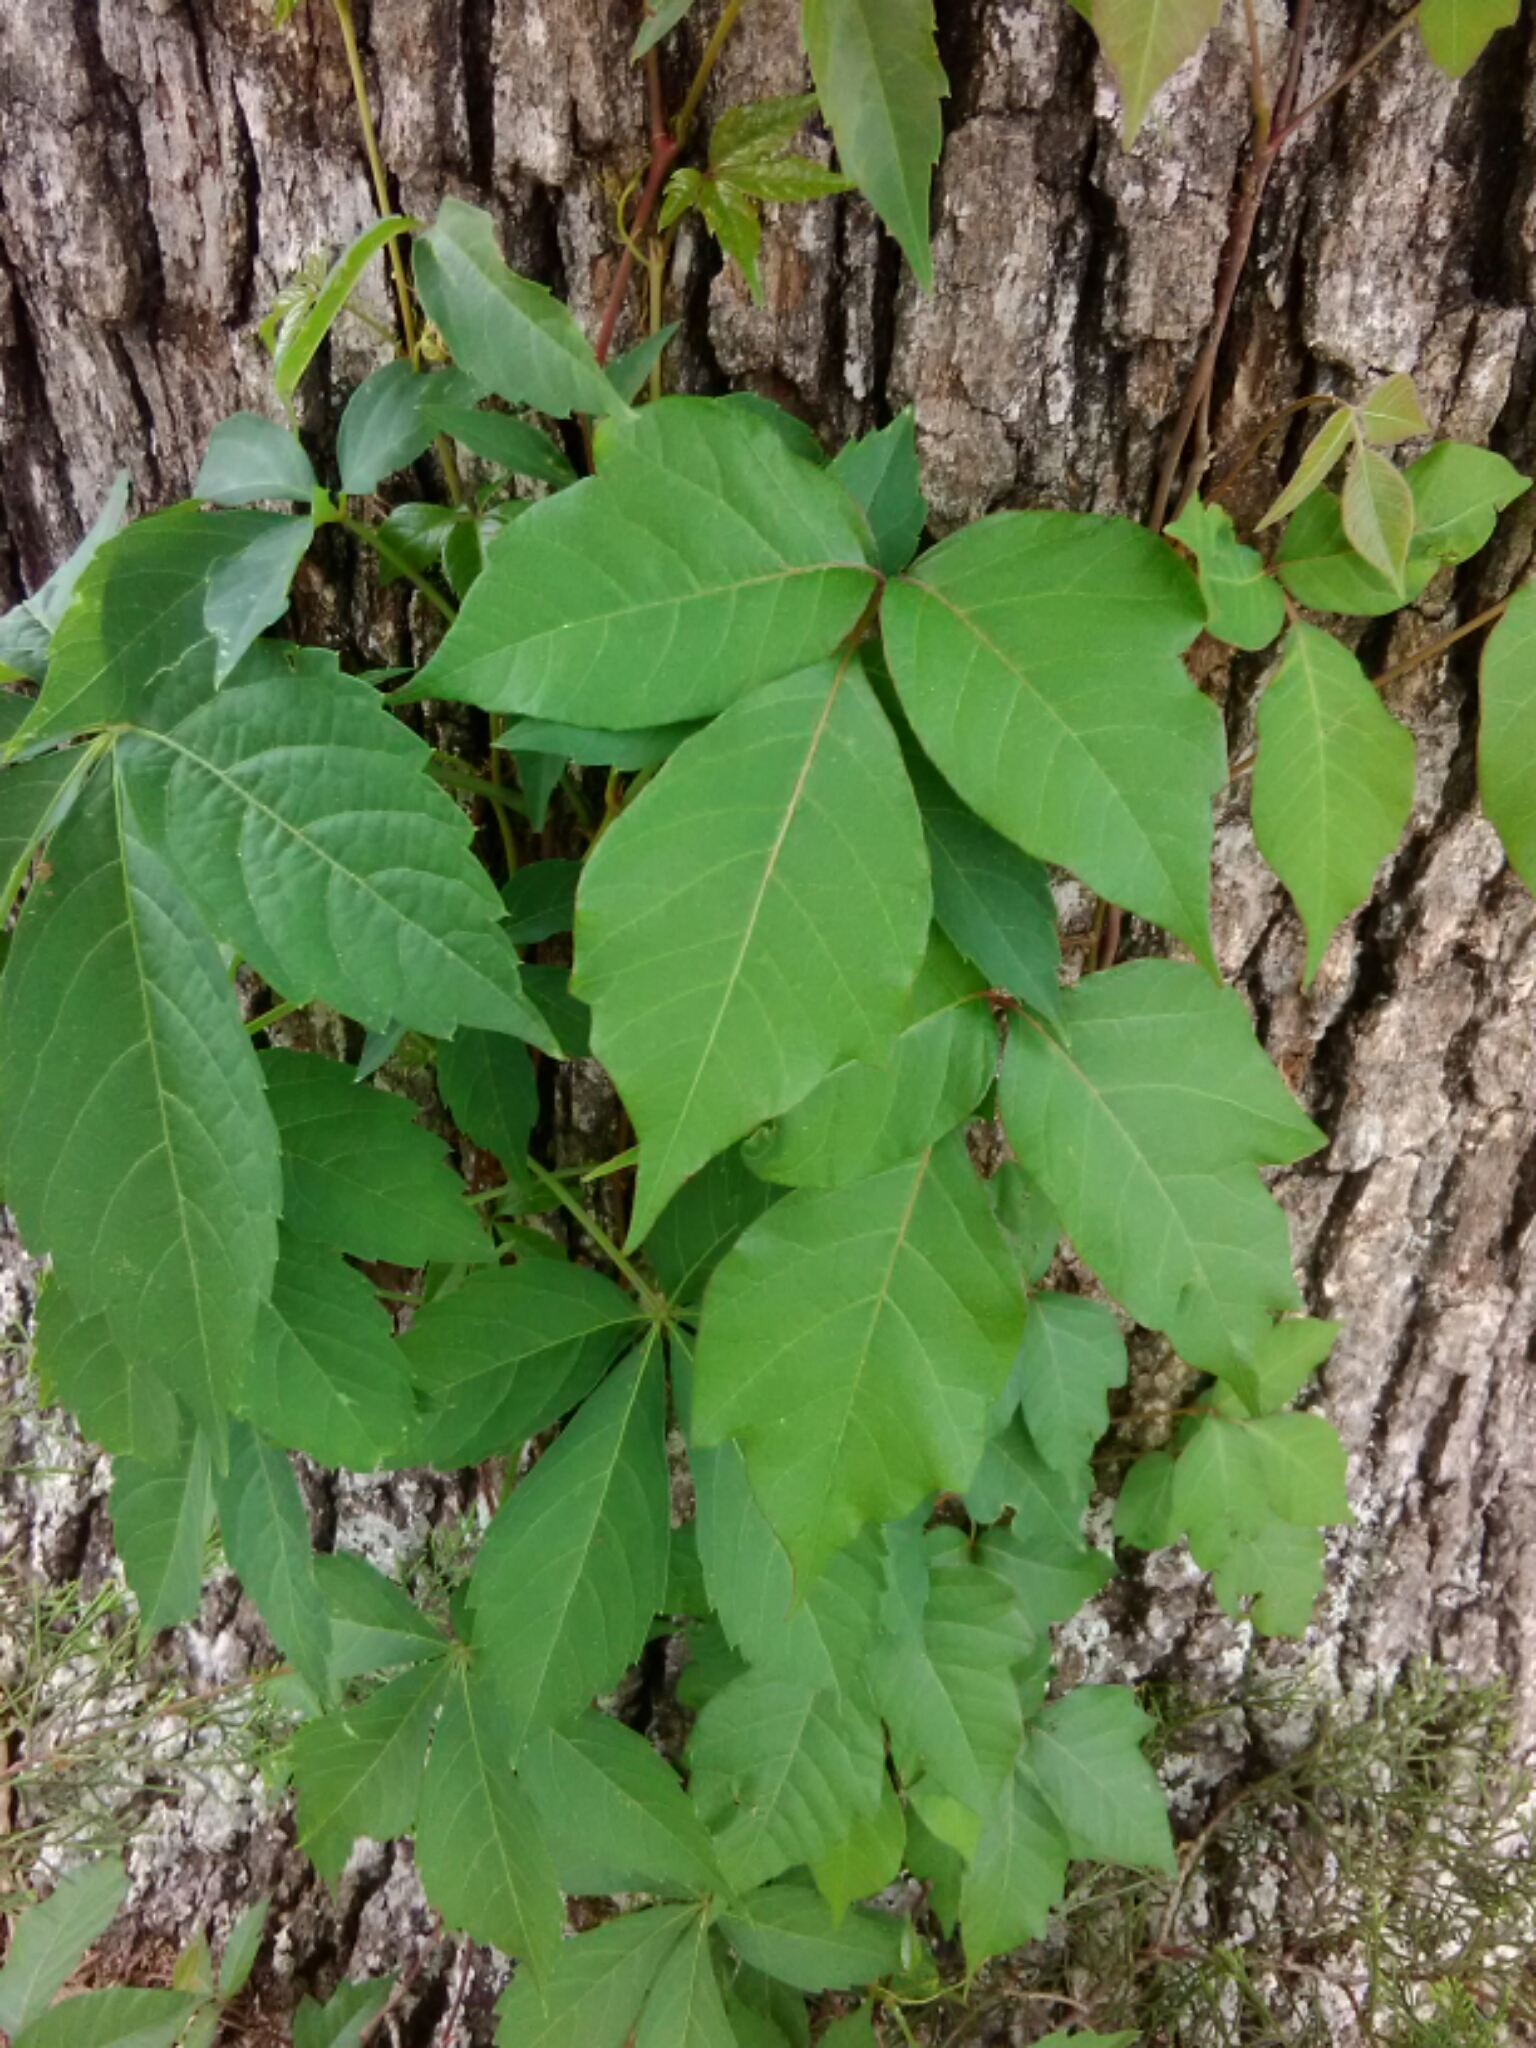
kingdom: Plantae
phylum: Tracheophyta
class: Magnoliopsida
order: Sapindales
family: Anacardiaceae
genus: Toxicodendron
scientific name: Toxicodendron radicans
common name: Poison ivy
